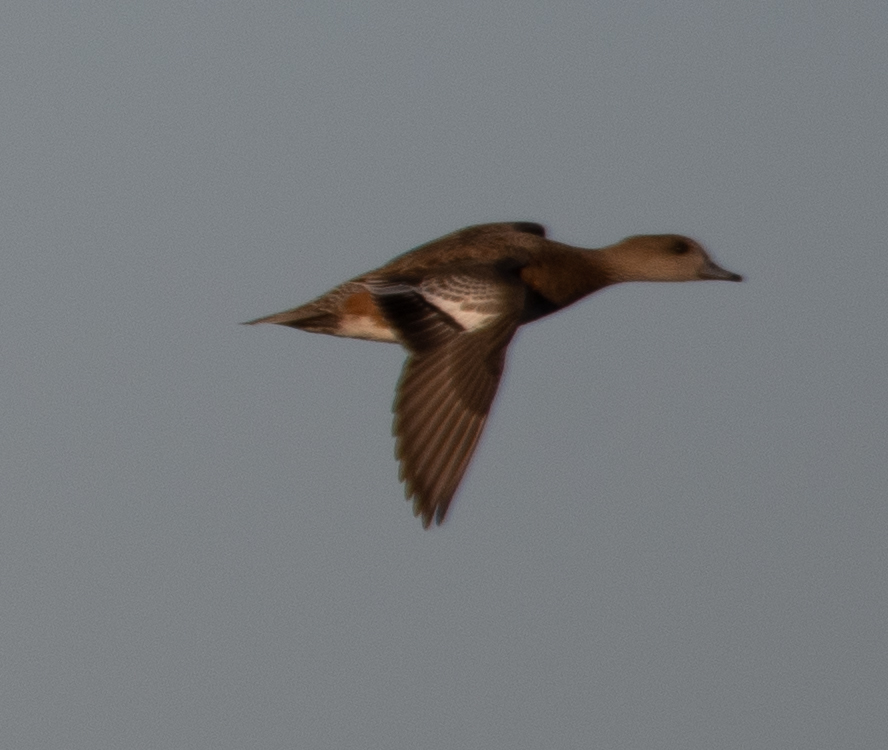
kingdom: Animalia
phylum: Chordata
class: Aves
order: Anseriformes
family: Anatidae
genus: Mareca
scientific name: Mareca americana
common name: American wigeon
